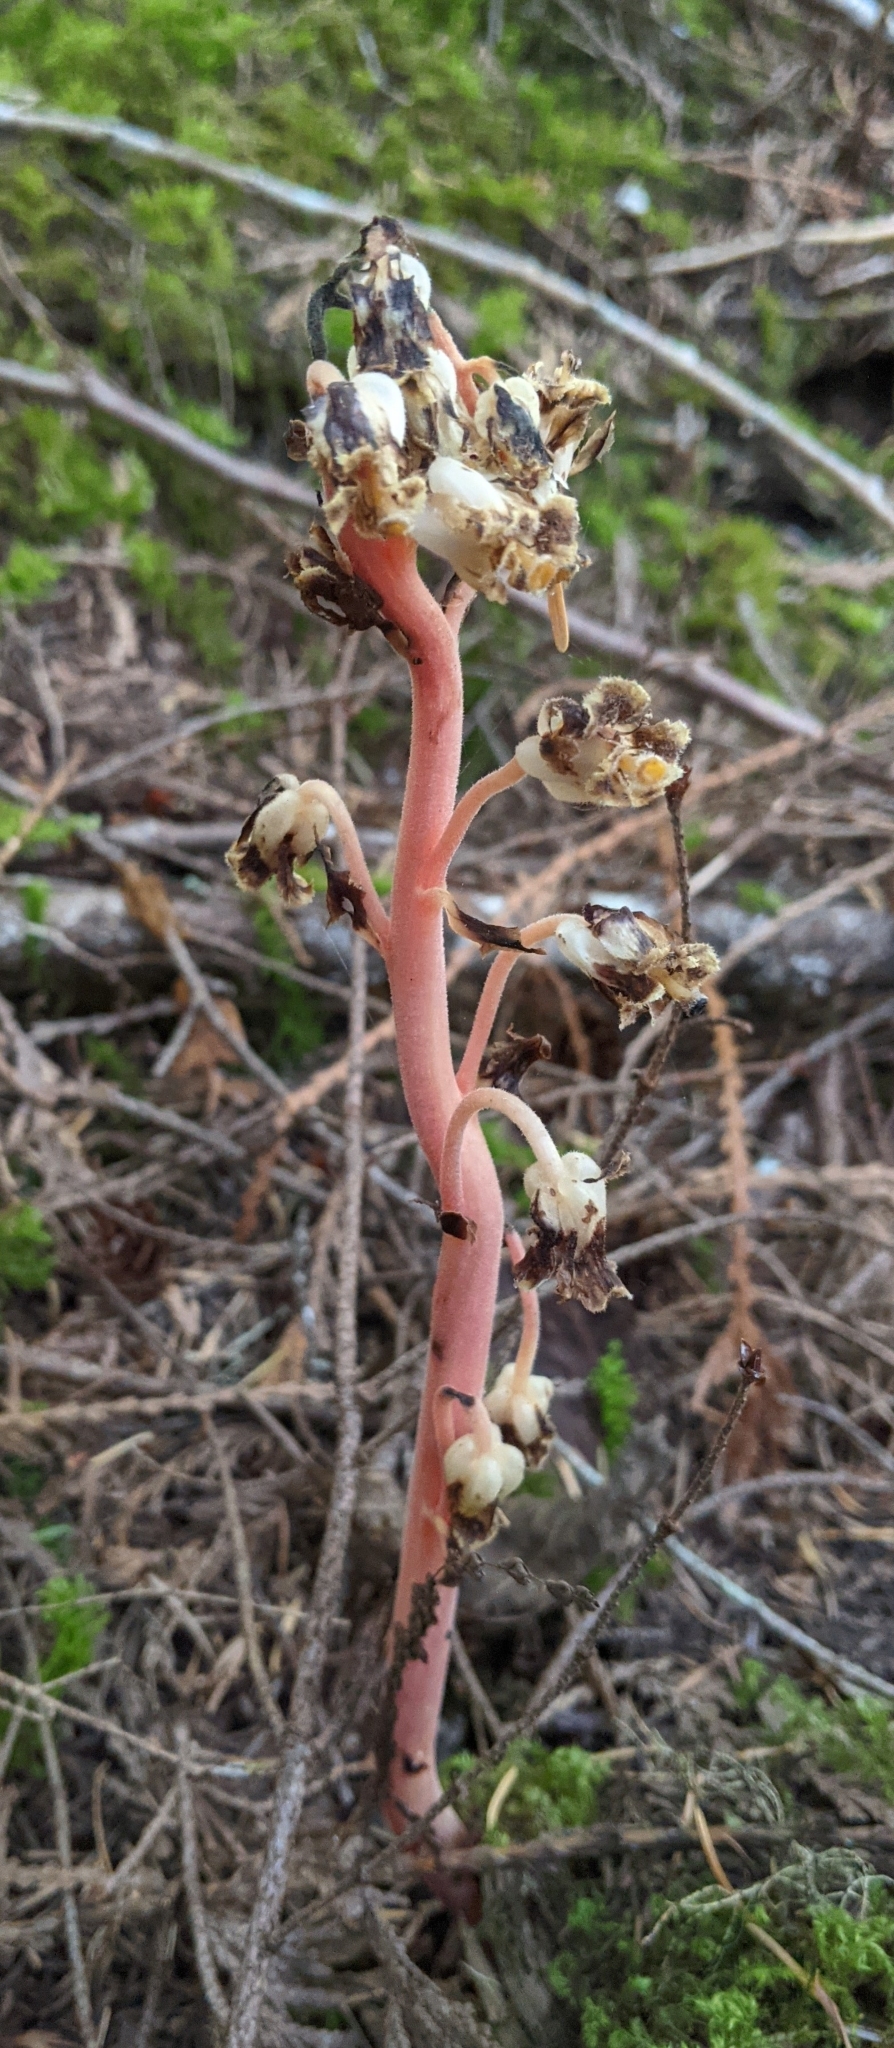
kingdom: Plantae
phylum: Tracheophyta
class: Magnoliopsida
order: Ericales
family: Ericaceae
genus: Hypopitys
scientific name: Hypopitys monotropa
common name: Yellow bird's-nest
